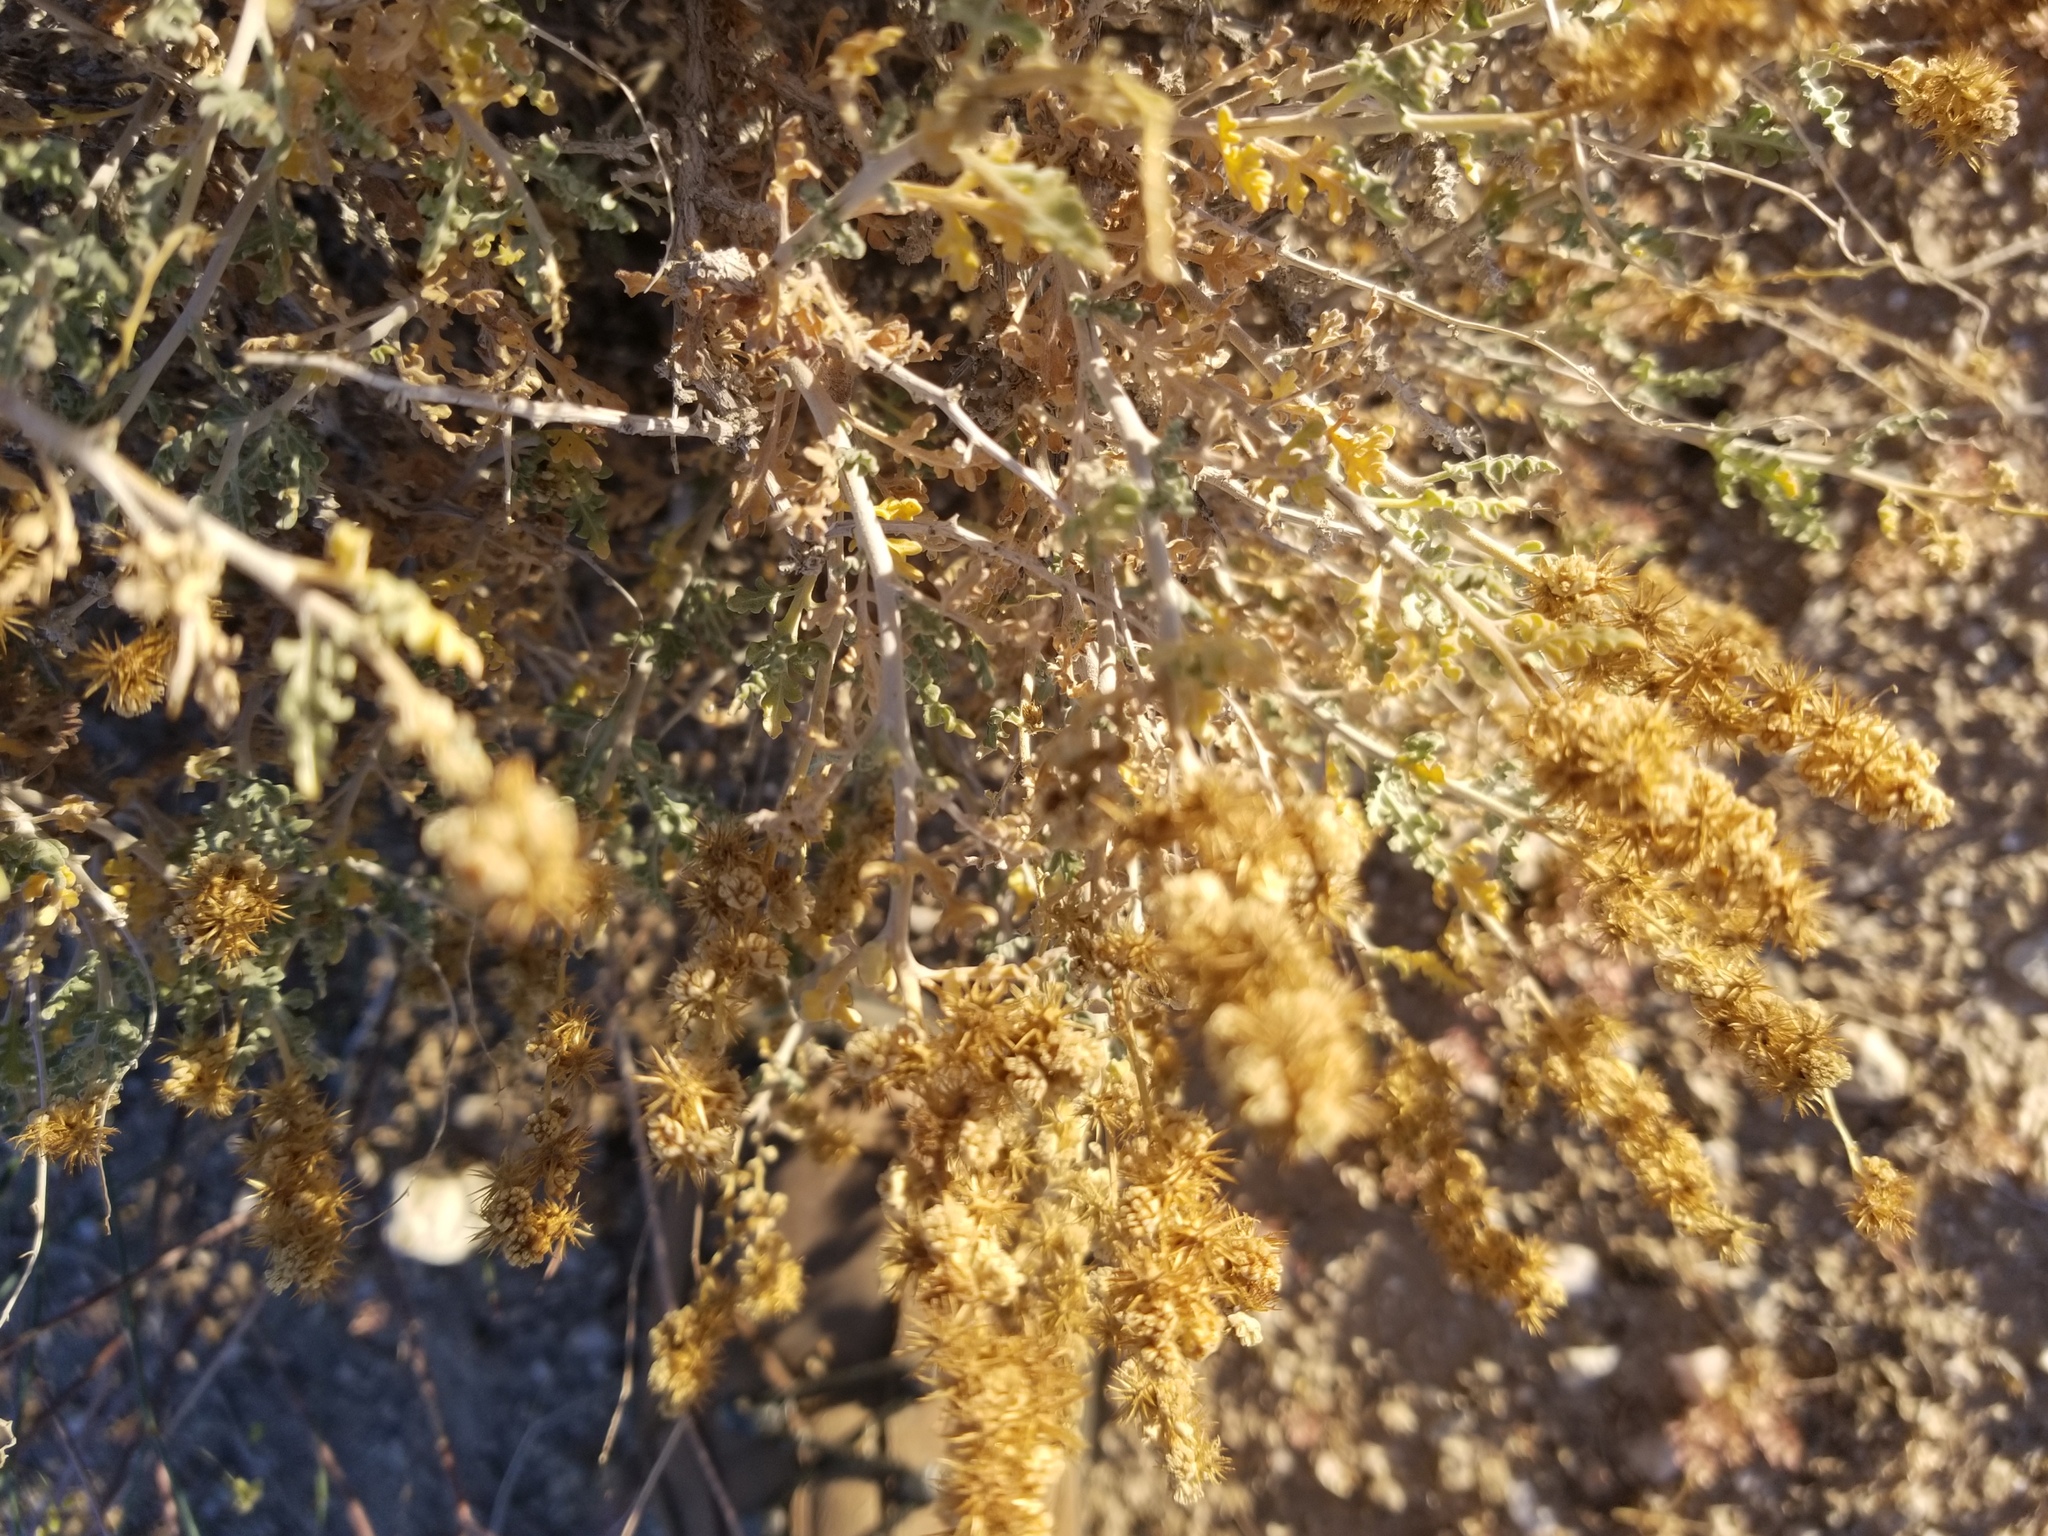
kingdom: Plantae
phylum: Tracheophyta
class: Magnoliopsida
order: Asterales
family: Asteraceae
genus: Ambrosia
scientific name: Ambrosia dumosa
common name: Bur-sage
